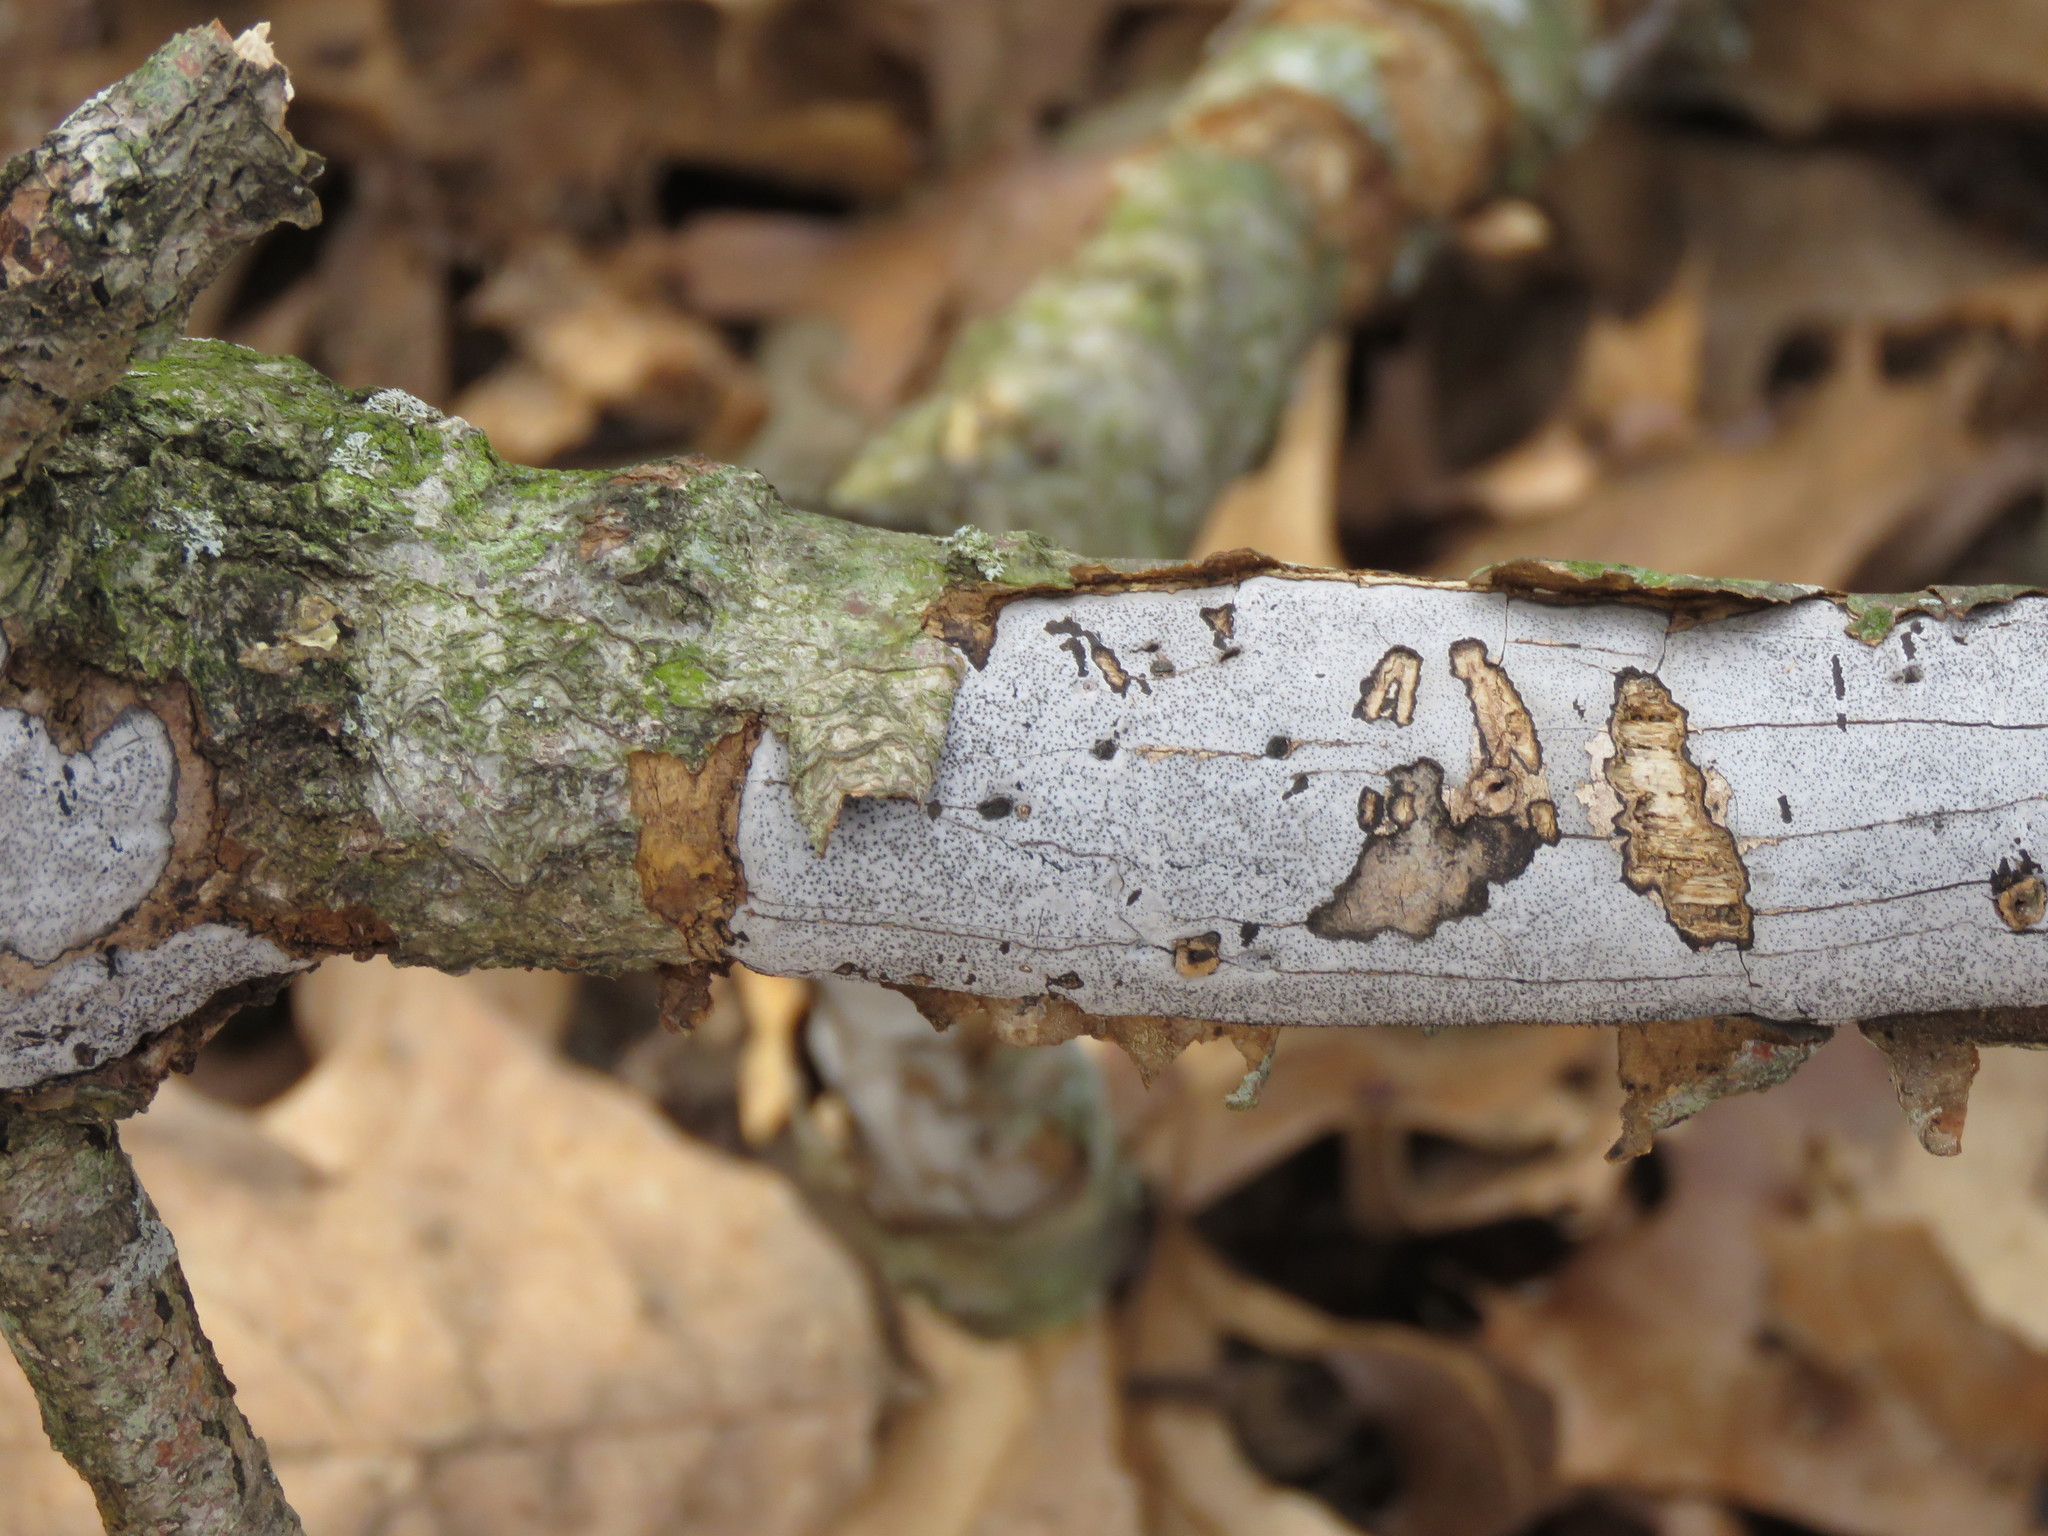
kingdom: Fungi
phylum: Ascomycota
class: Sordariomycetes
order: Xylariales
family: Graphostromataceae
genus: Biscogniauxia
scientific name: Biscogniauxia atropunctata
